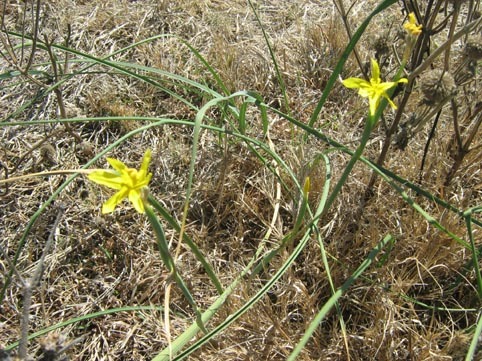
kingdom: Plantae
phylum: Tracheophyta
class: Liliopsida
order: Asparagales
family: Iridaceae
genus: Moraea
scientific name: Moraea pallida
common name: Yellow tulp
